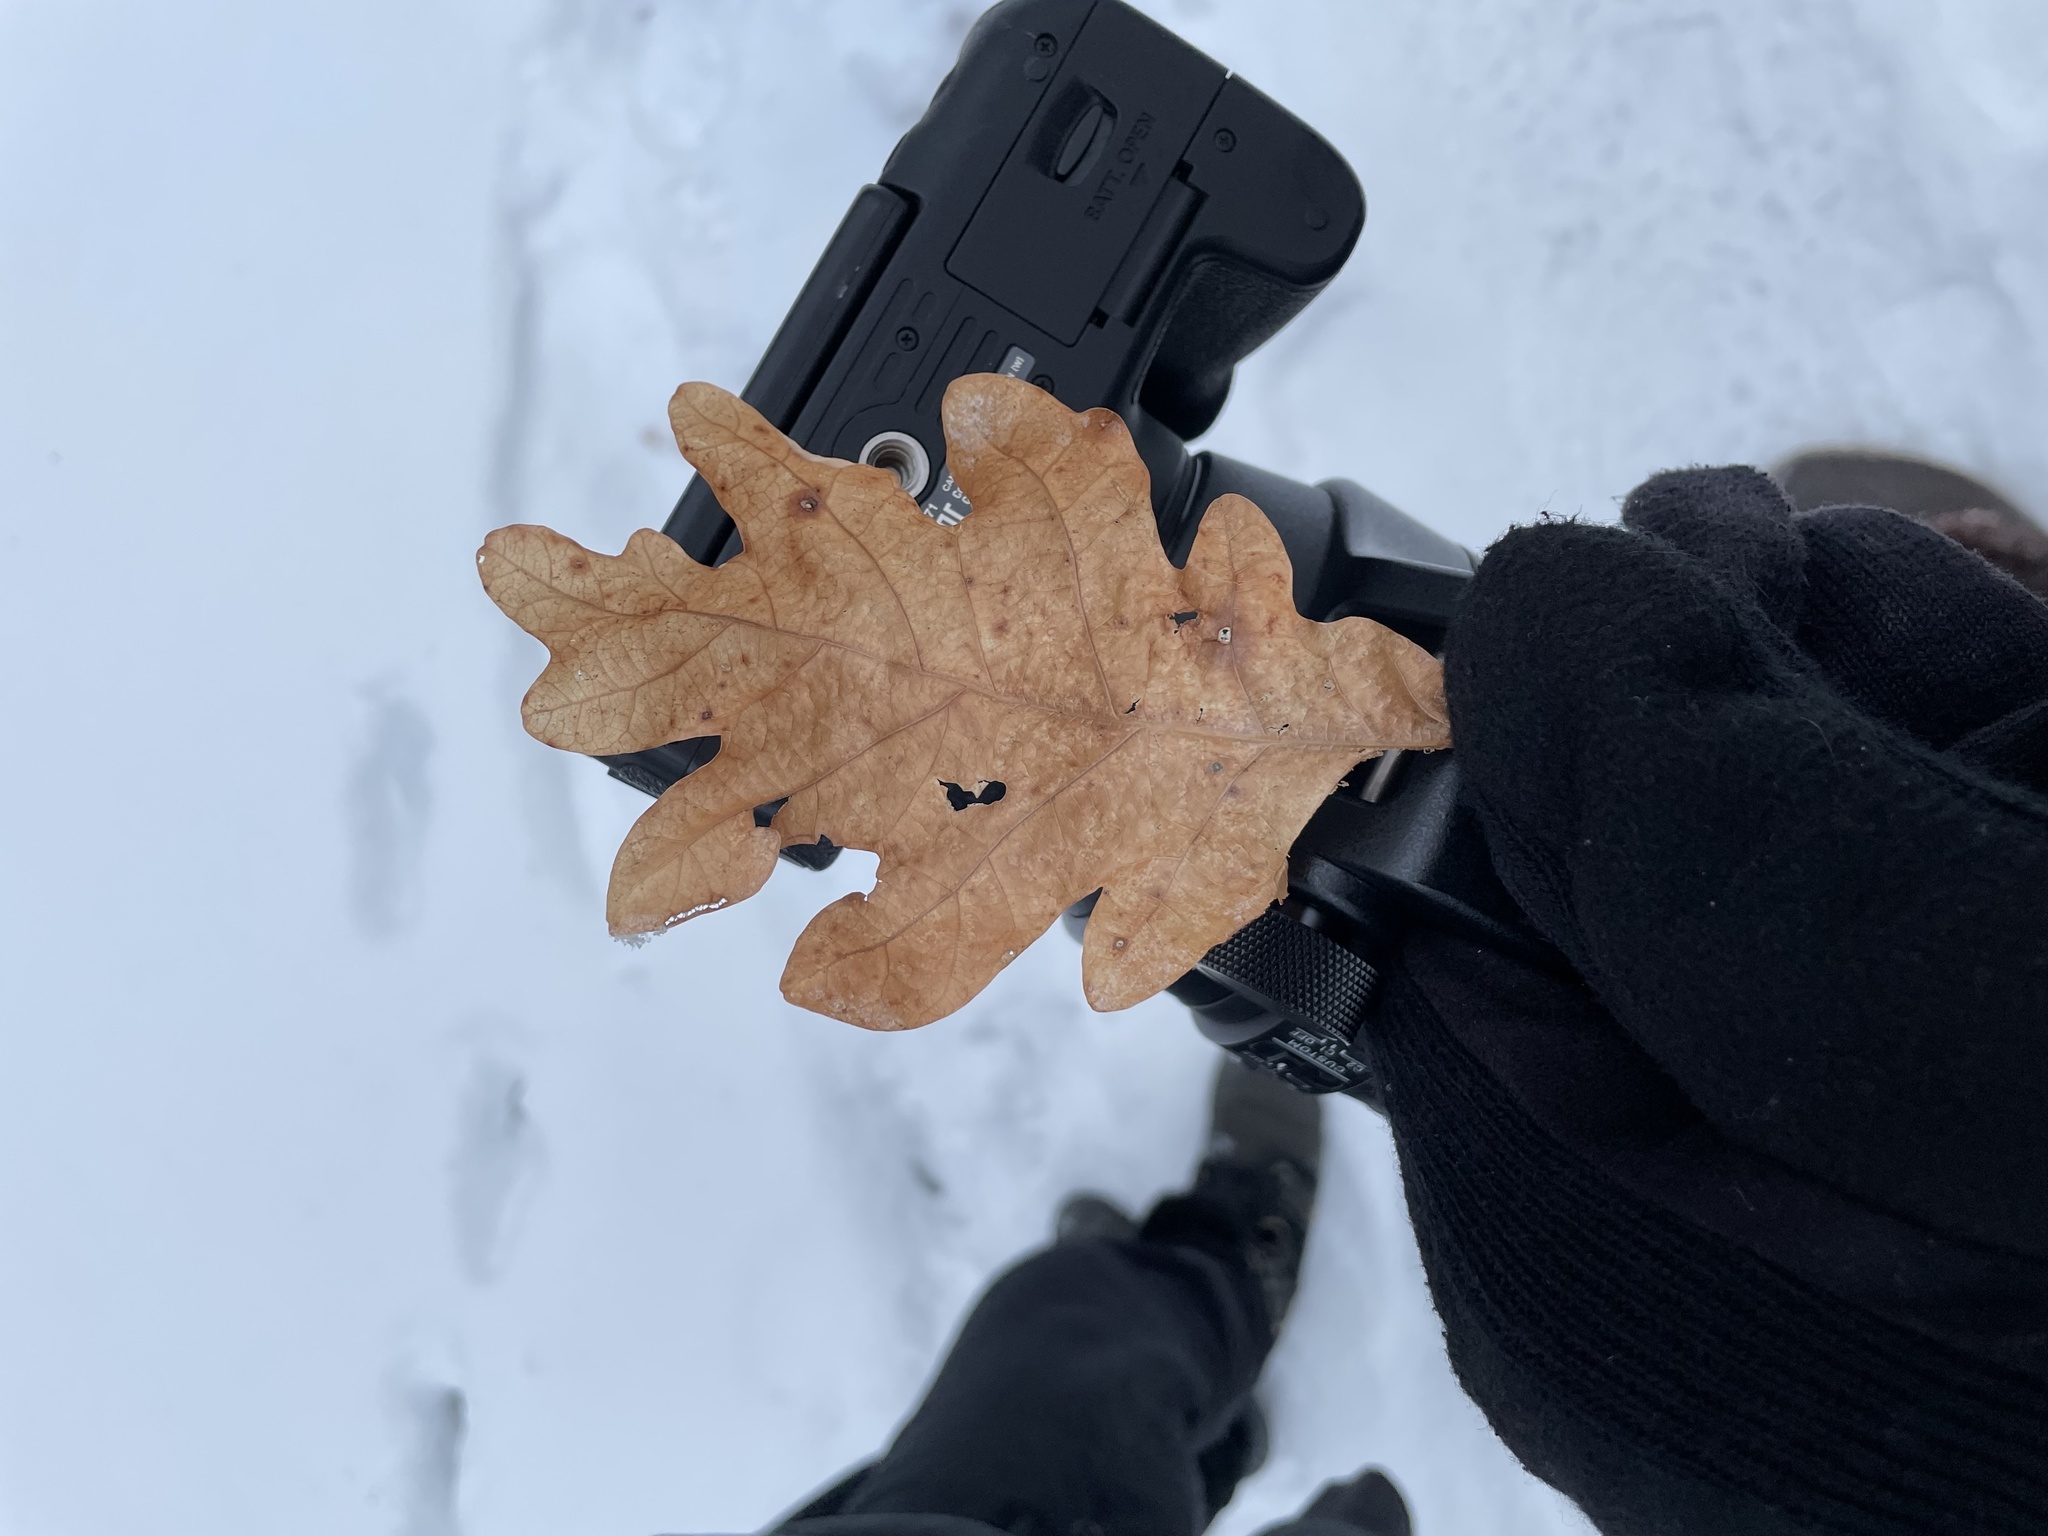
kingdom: Plantae
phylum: Tracheophyta
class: Magnoliopsida
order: Fagales
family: Fagaceae
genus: Quercus
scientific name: Quercus alba
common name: White oak
